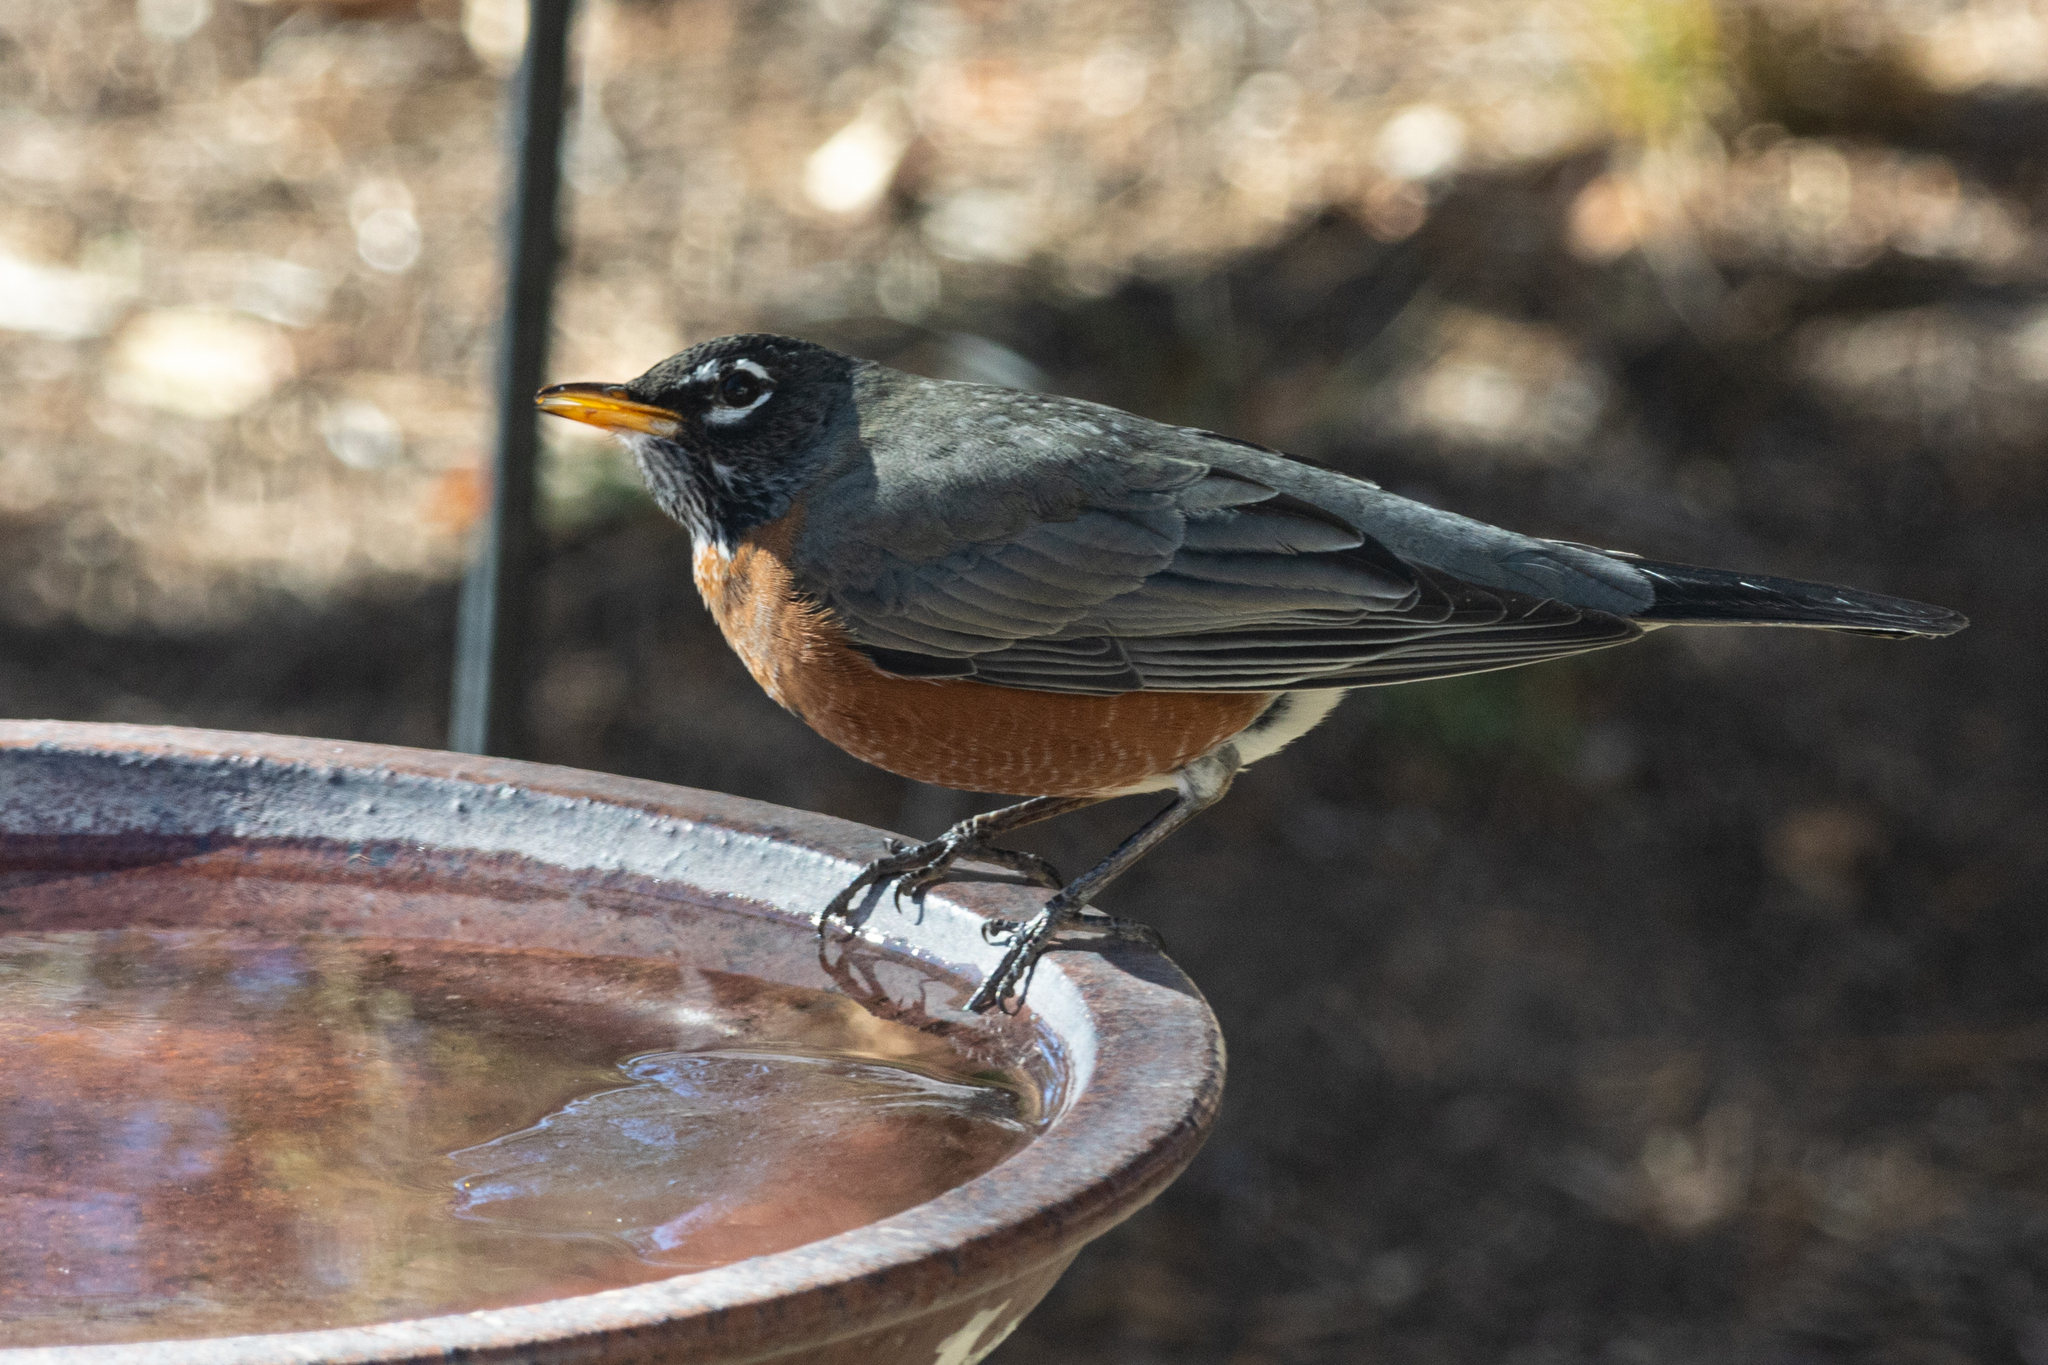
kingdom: Animalia
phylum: Chordata
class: Aves
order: Passeriformes
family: Turdidae
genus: Turdus
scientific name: Turdus migratorius
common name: American robin
